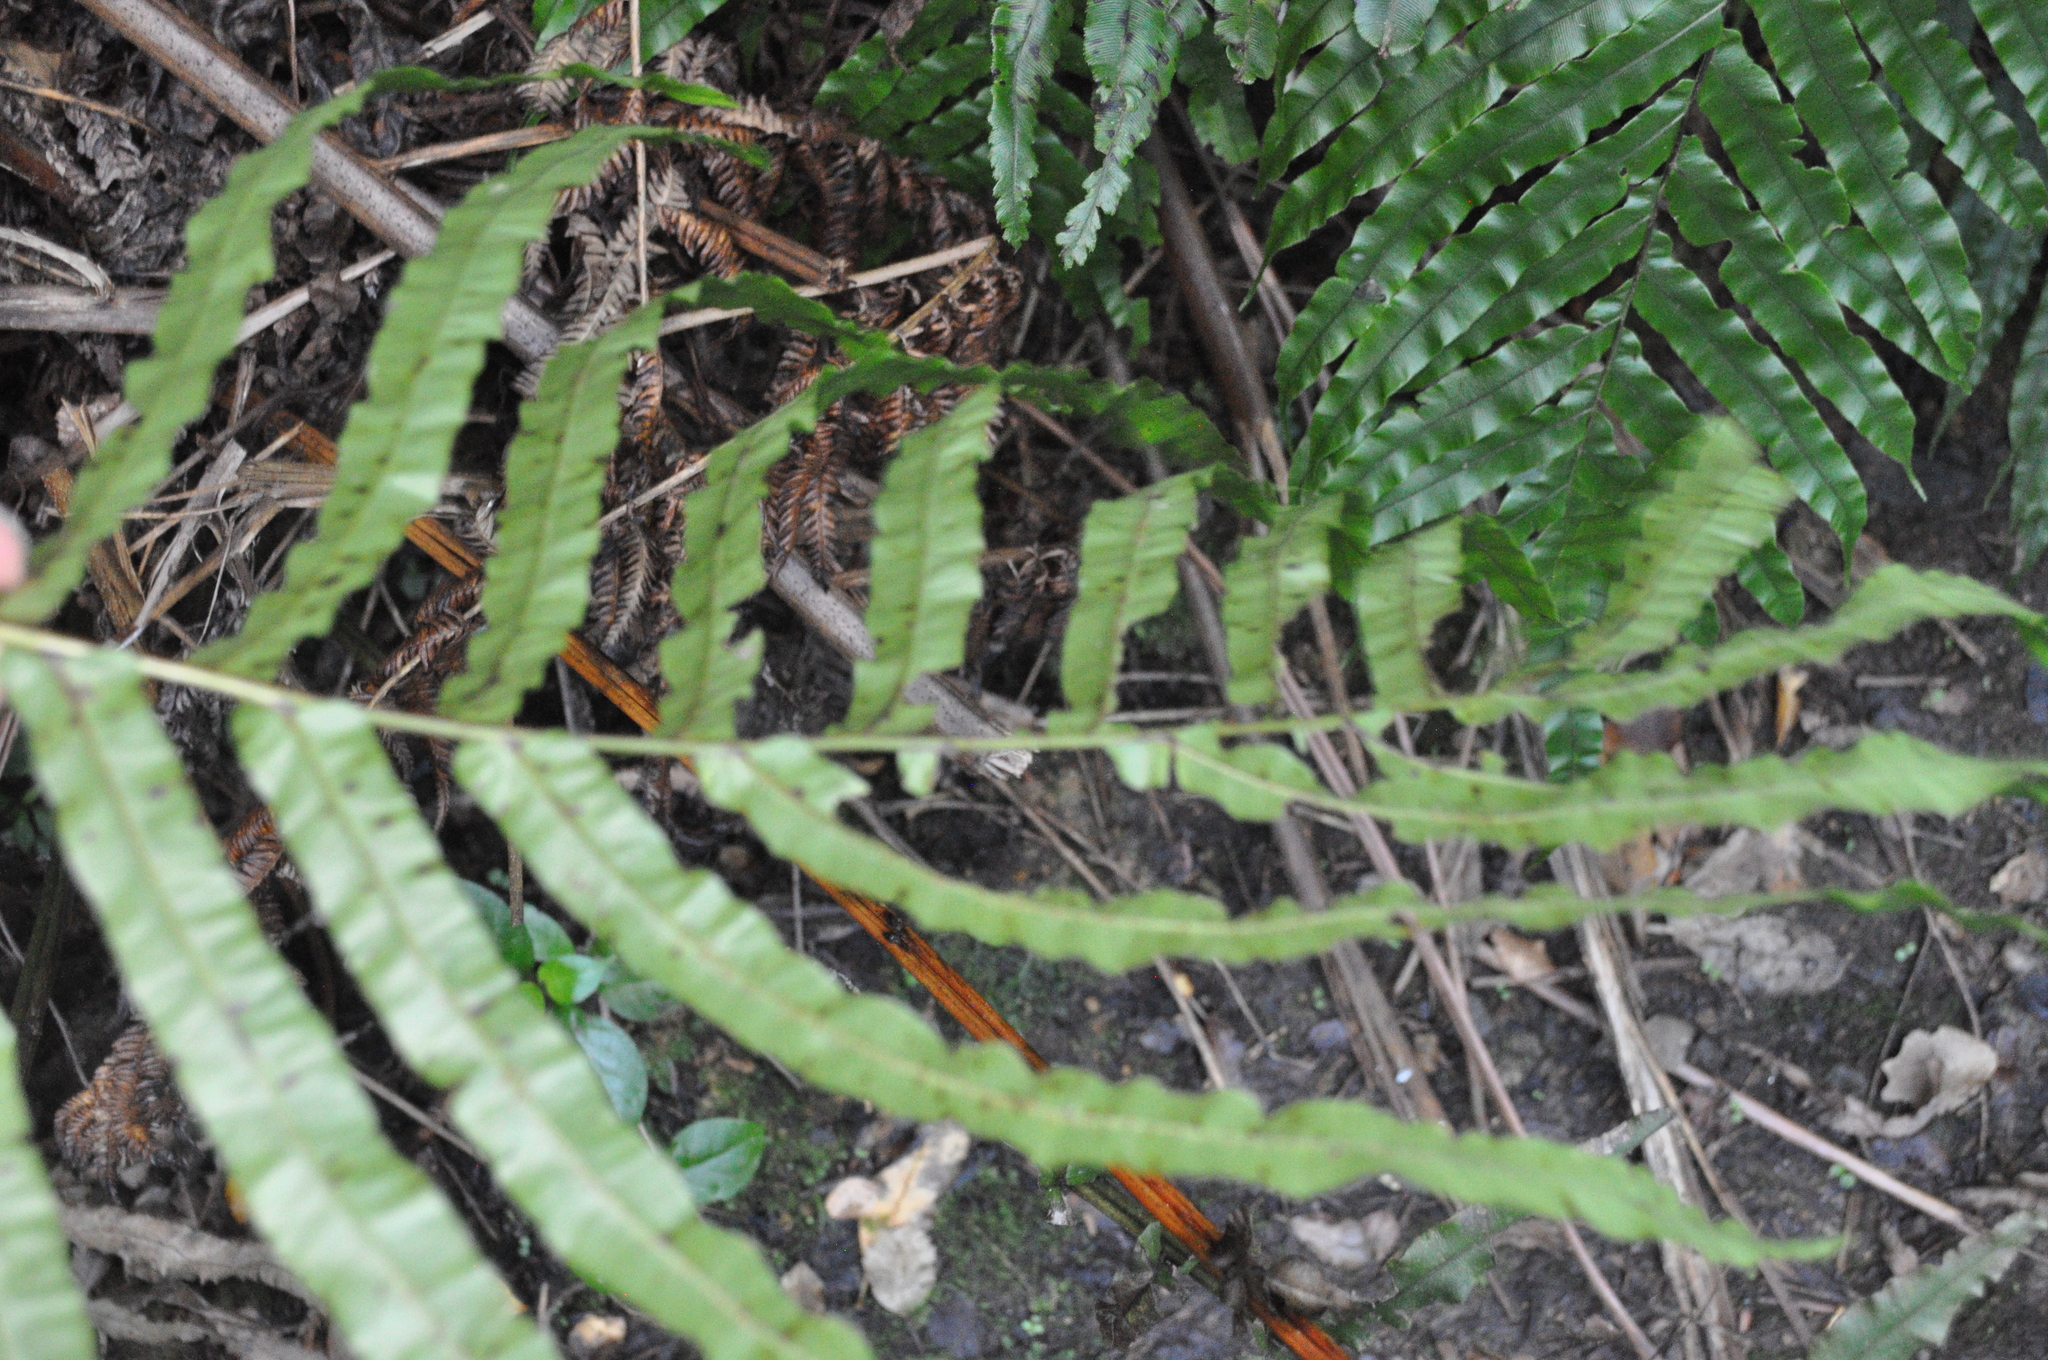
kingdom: Plantae
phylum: Tracheophyta
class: Polypodiopsida
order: Polypodiales
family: Blechnaceae
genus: Parablechnum
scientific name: Parablechnum novae-zelandiae
